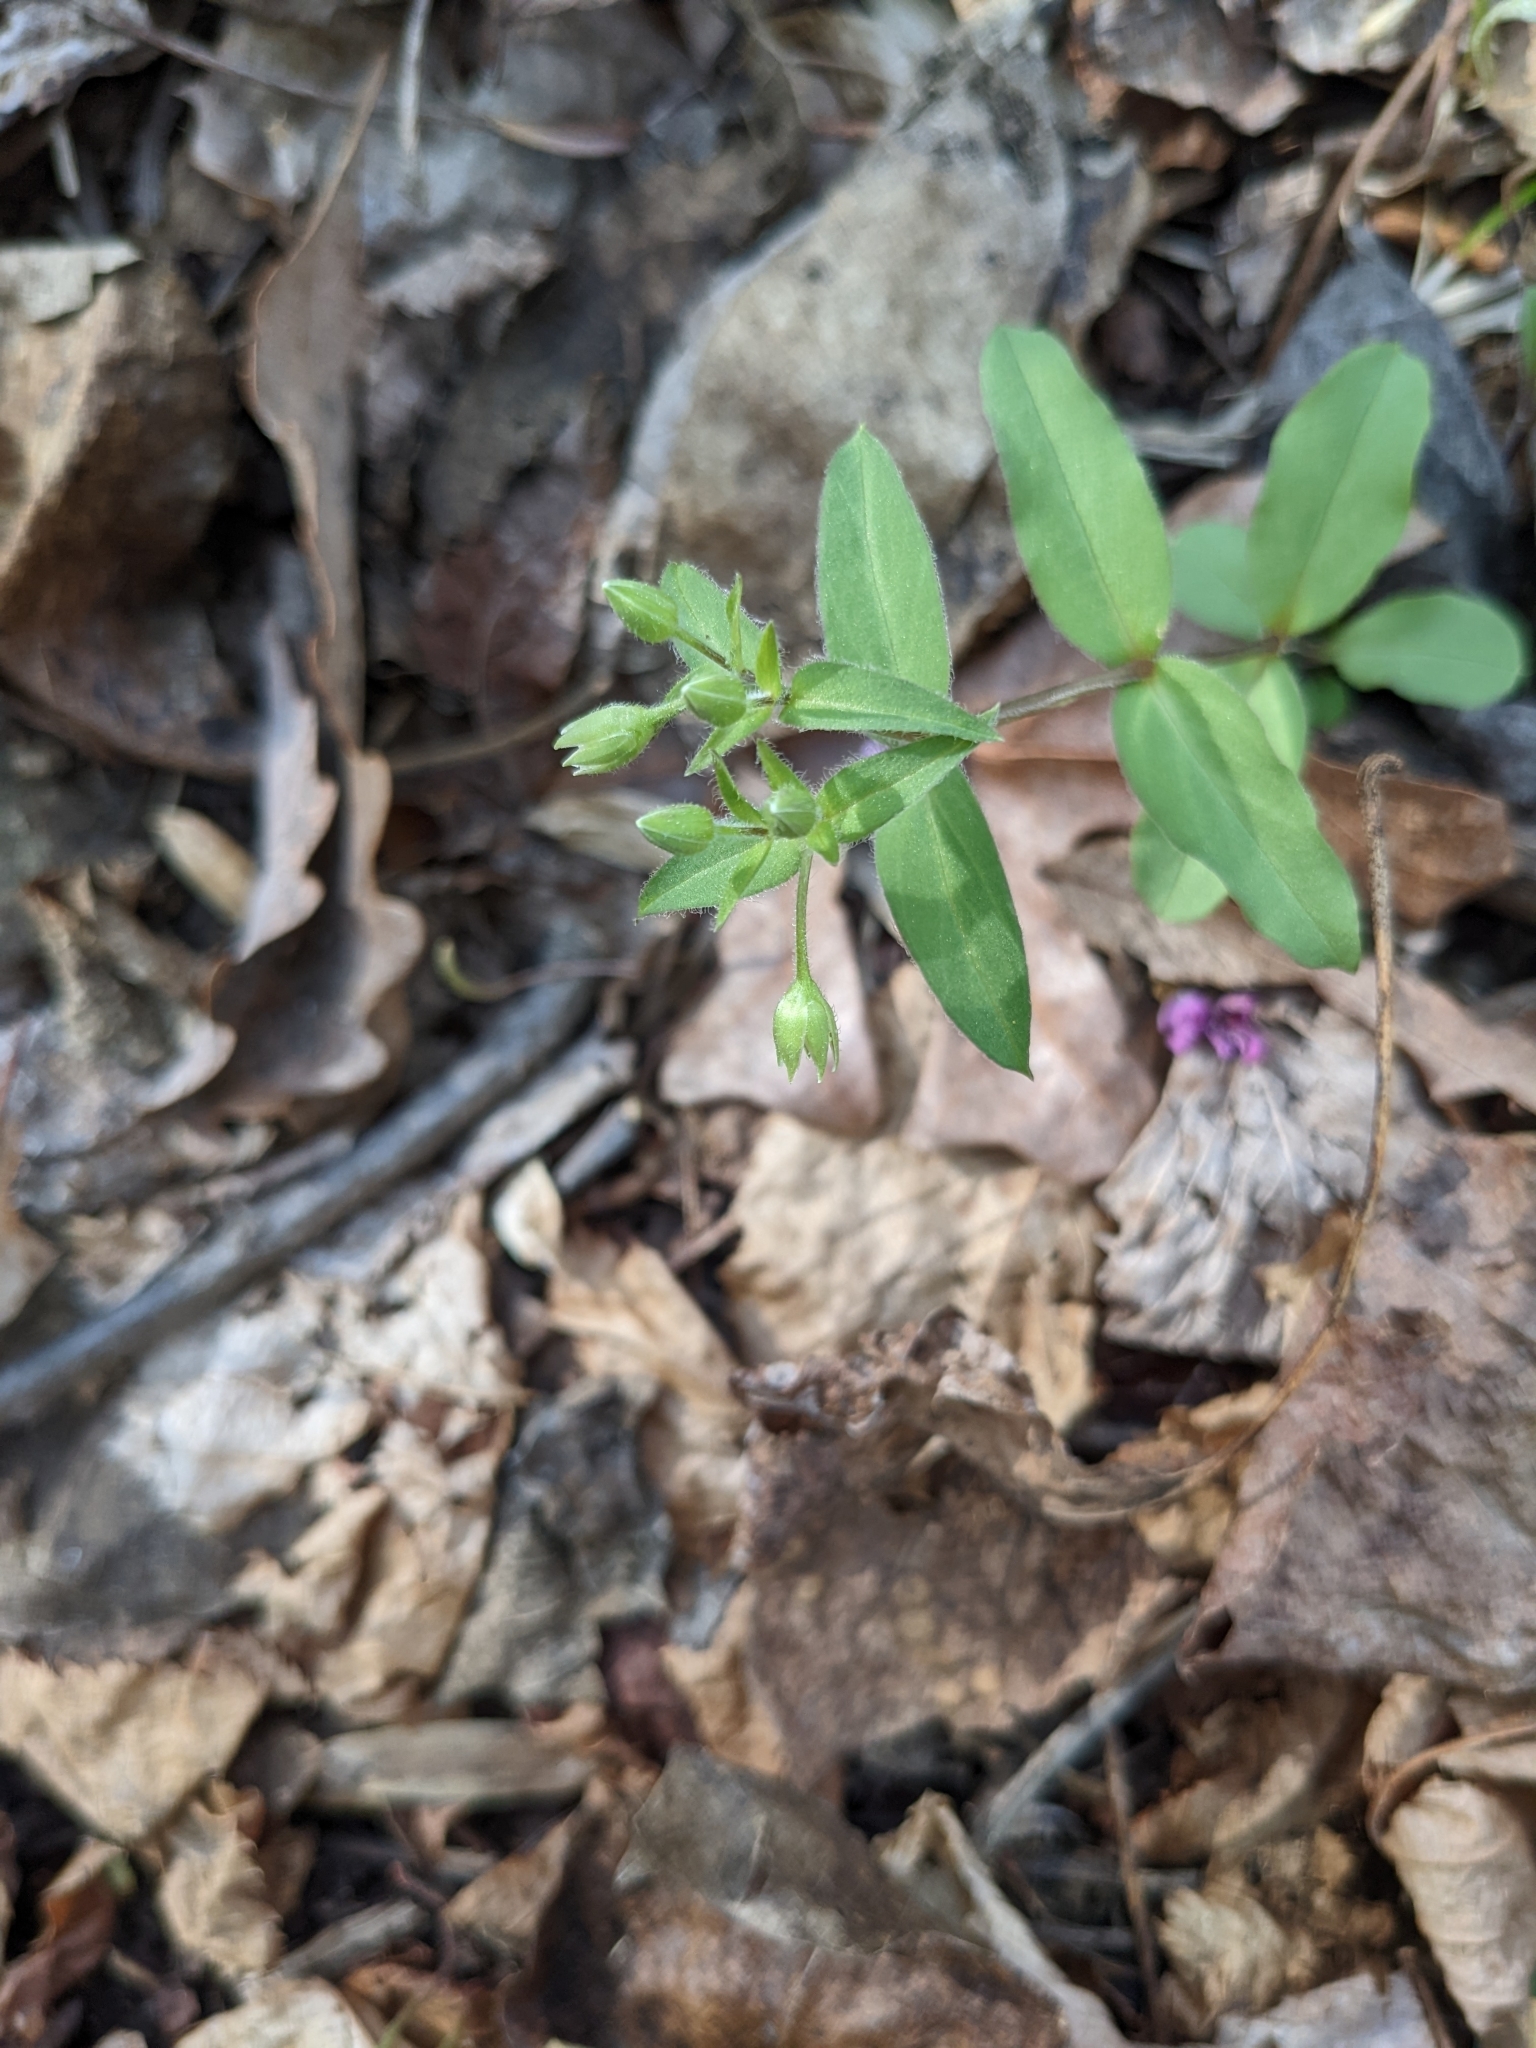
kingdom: Plantae
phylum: Tracheophyta
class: Magnoliopsida
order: Caryophyllales
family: Caryophyllaceae
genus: Stellaria
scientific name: Stellaria pubera
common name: Star chickweed
